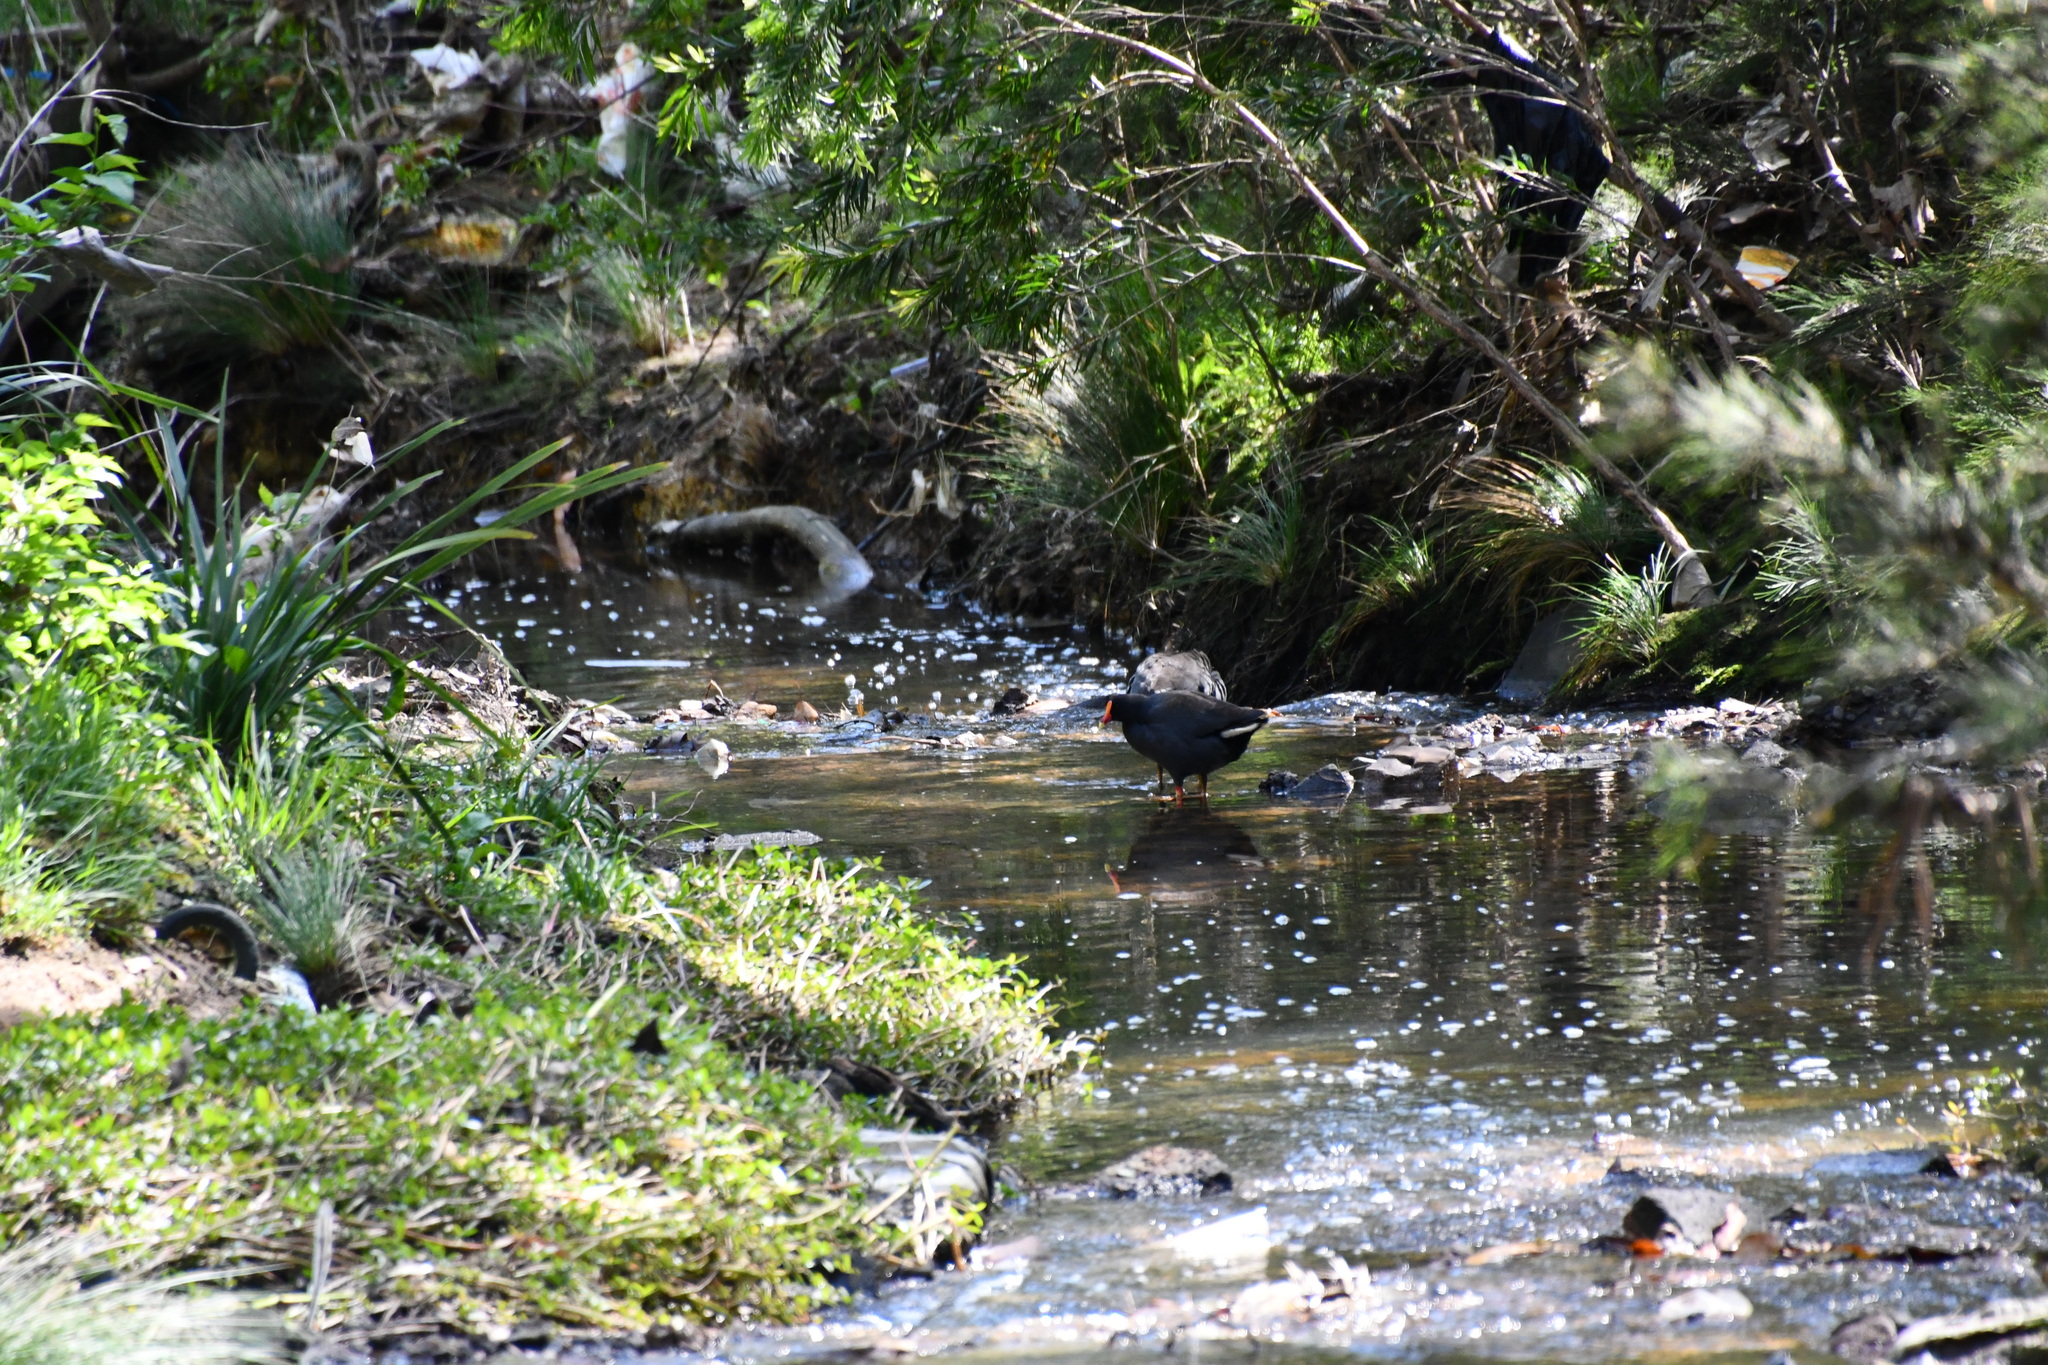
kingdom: Animalia
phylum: Chordata
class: Aves
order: Gruiformes
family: Rallidae
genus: Gallinula
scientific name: Gallinula tenebrosa
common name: Dusky moorhen
